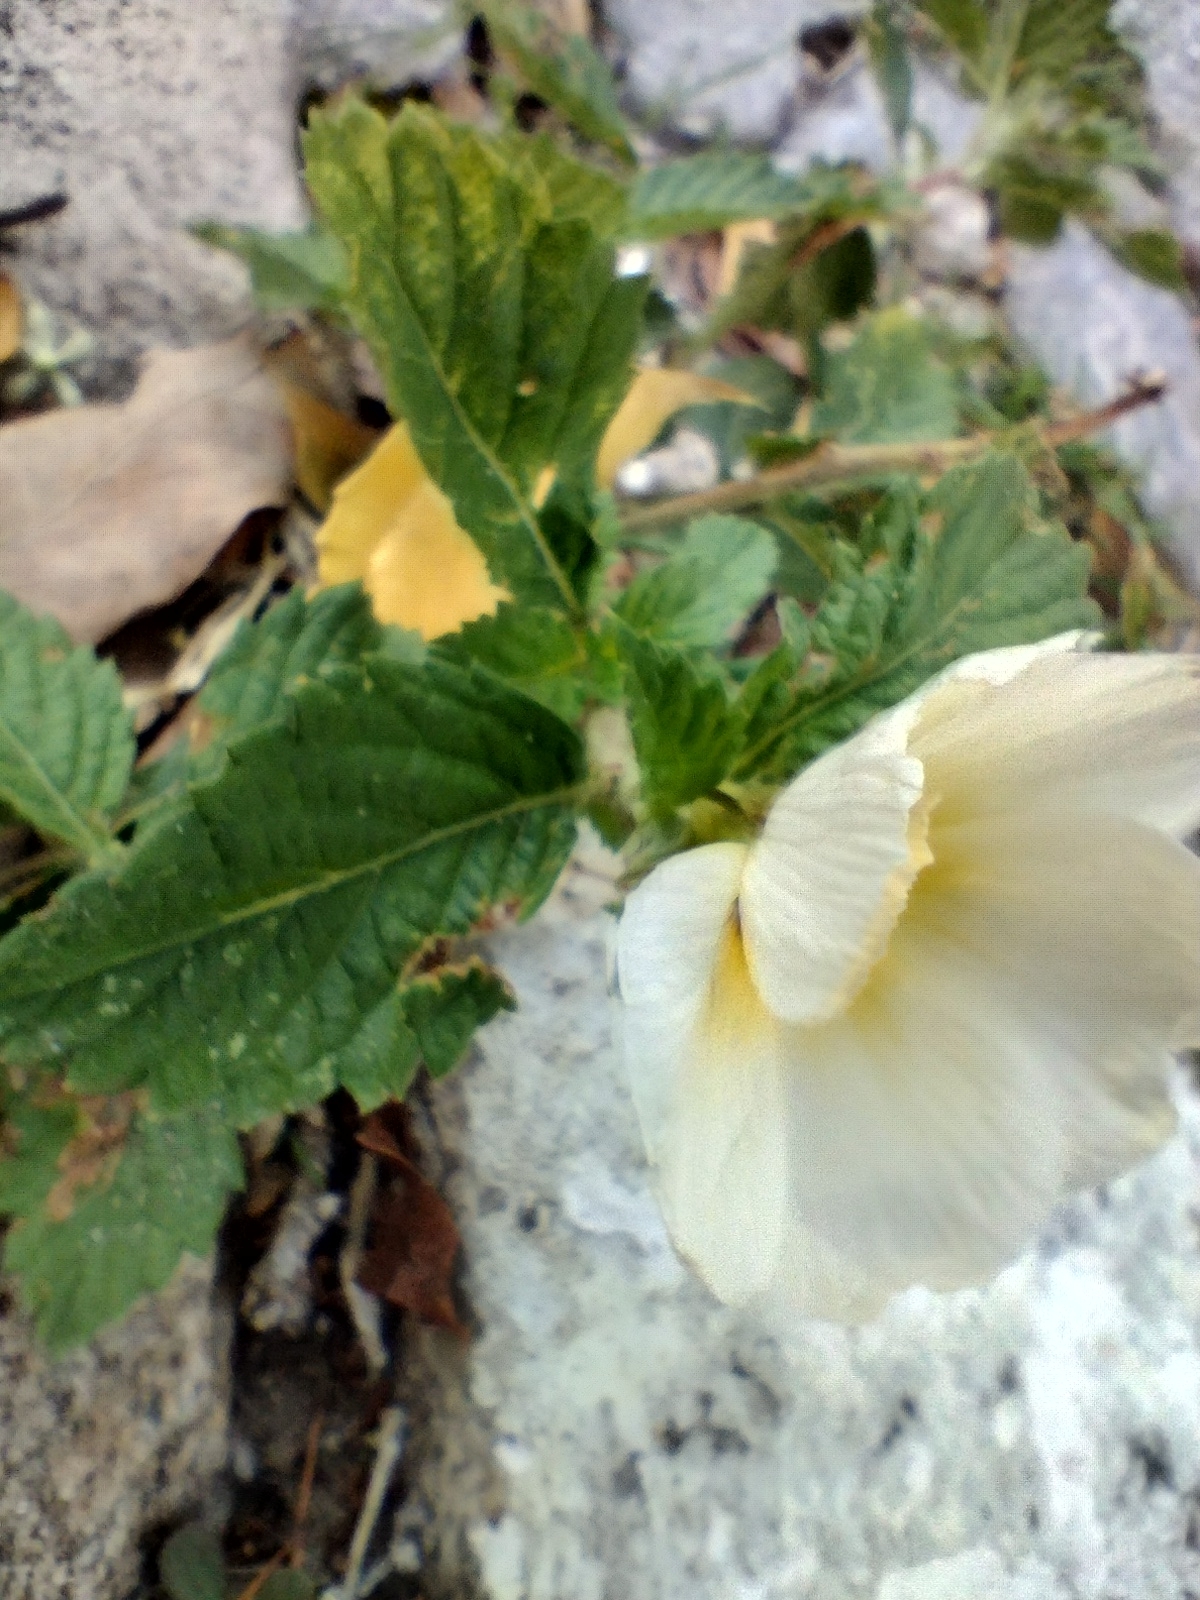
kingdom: Plantae
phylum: Tracheophyta
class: Magnoliopsida
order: Malpighiales
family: Turneraceae
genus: Turnera
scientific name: Turnera subulata
